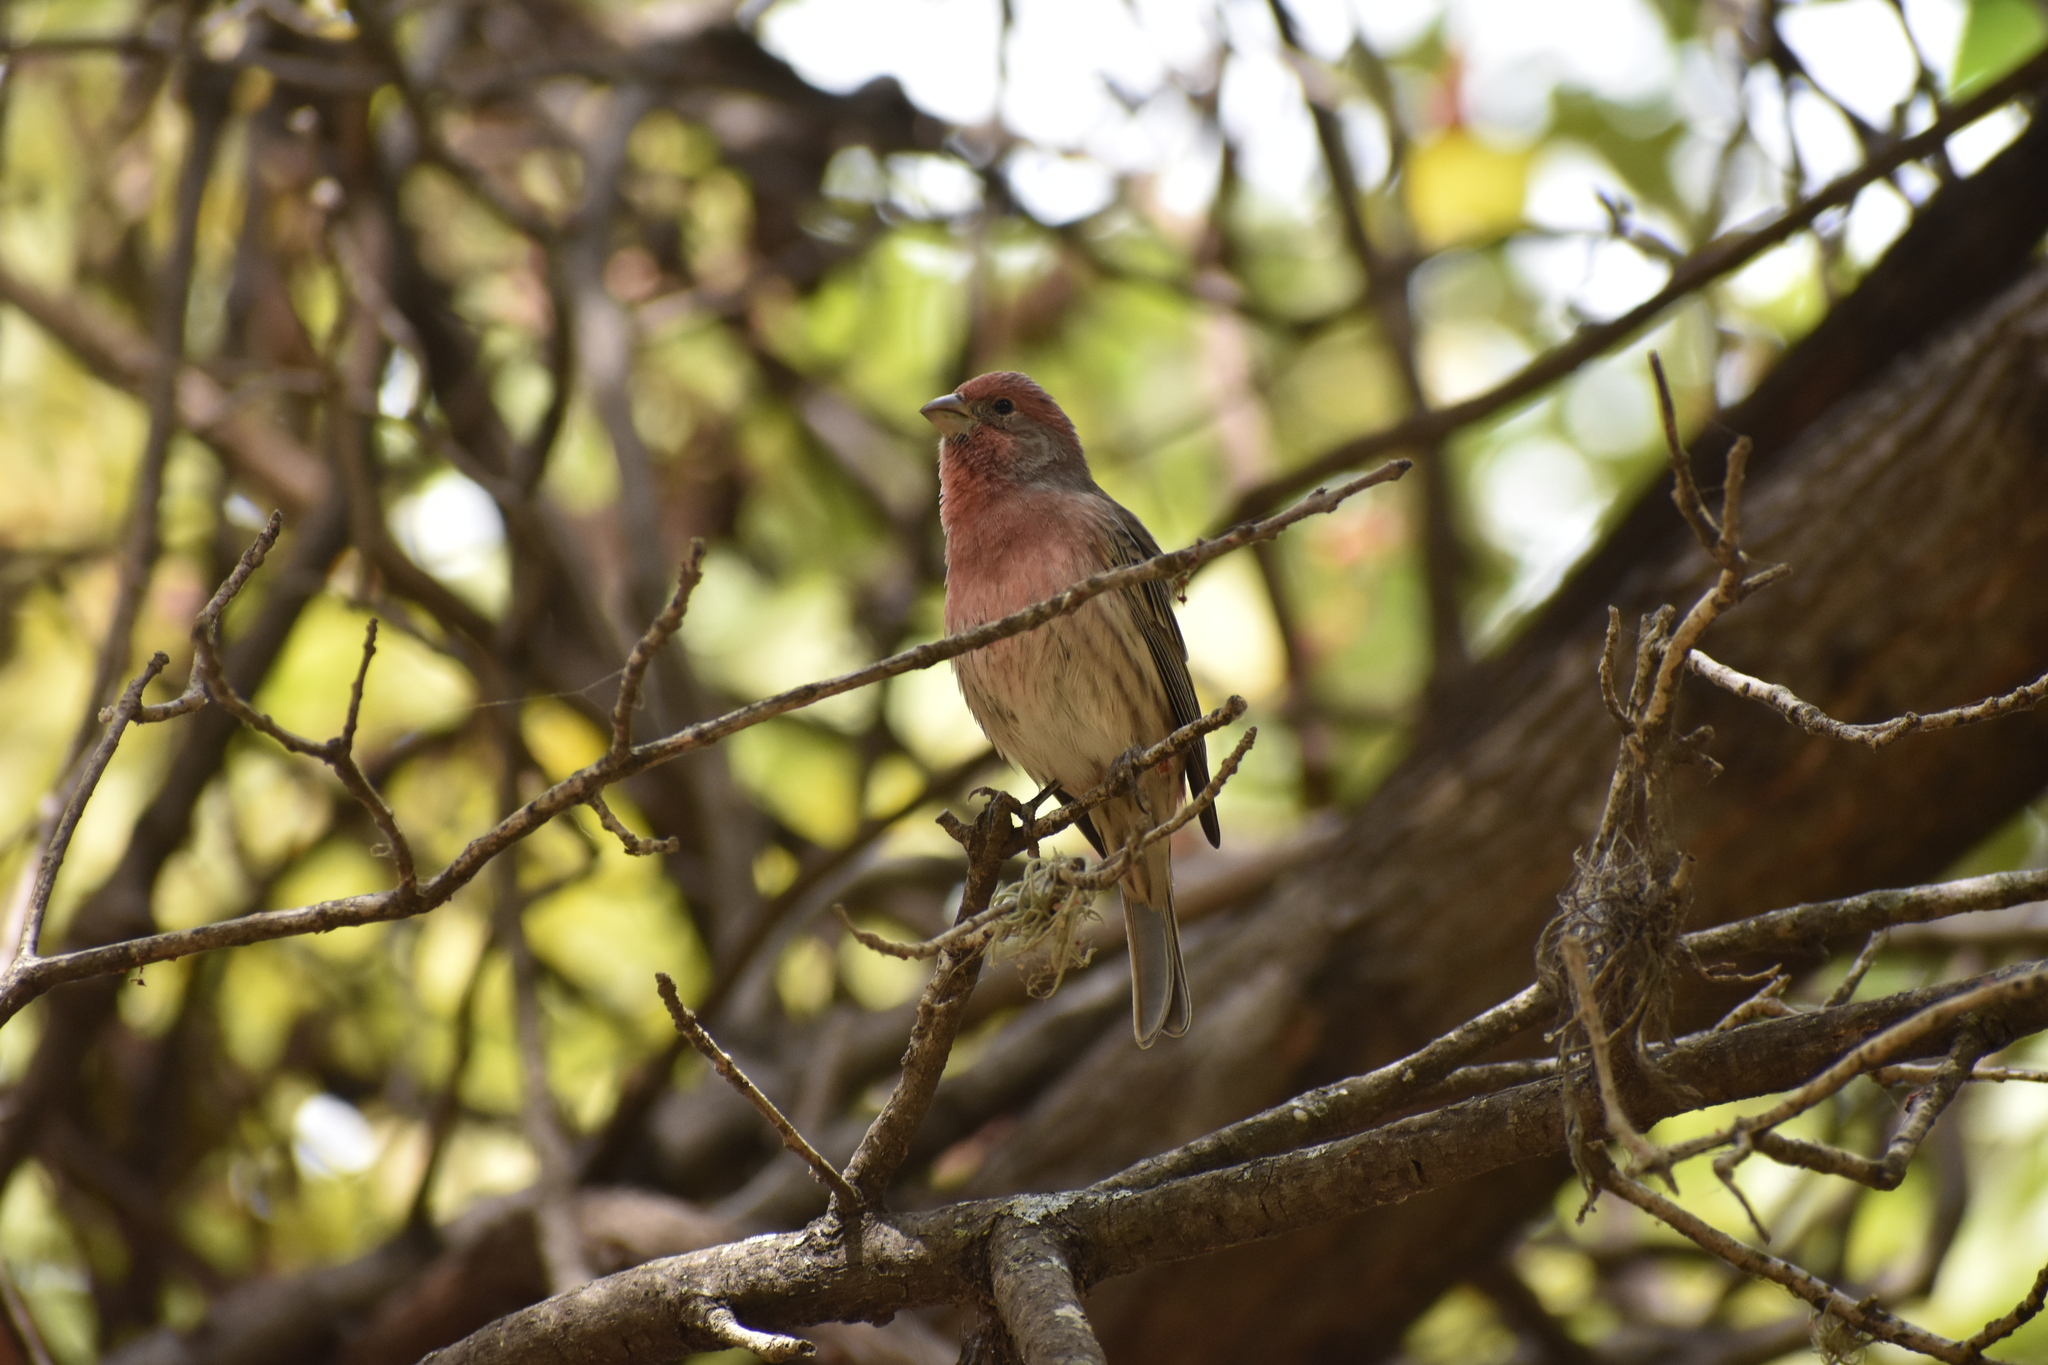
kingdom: Animalia
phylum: Chordata
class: Aves
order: Passeriformes
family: Fringillidae
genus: Haemorhous
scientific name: Haemorhous mexicanus
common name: House finch
